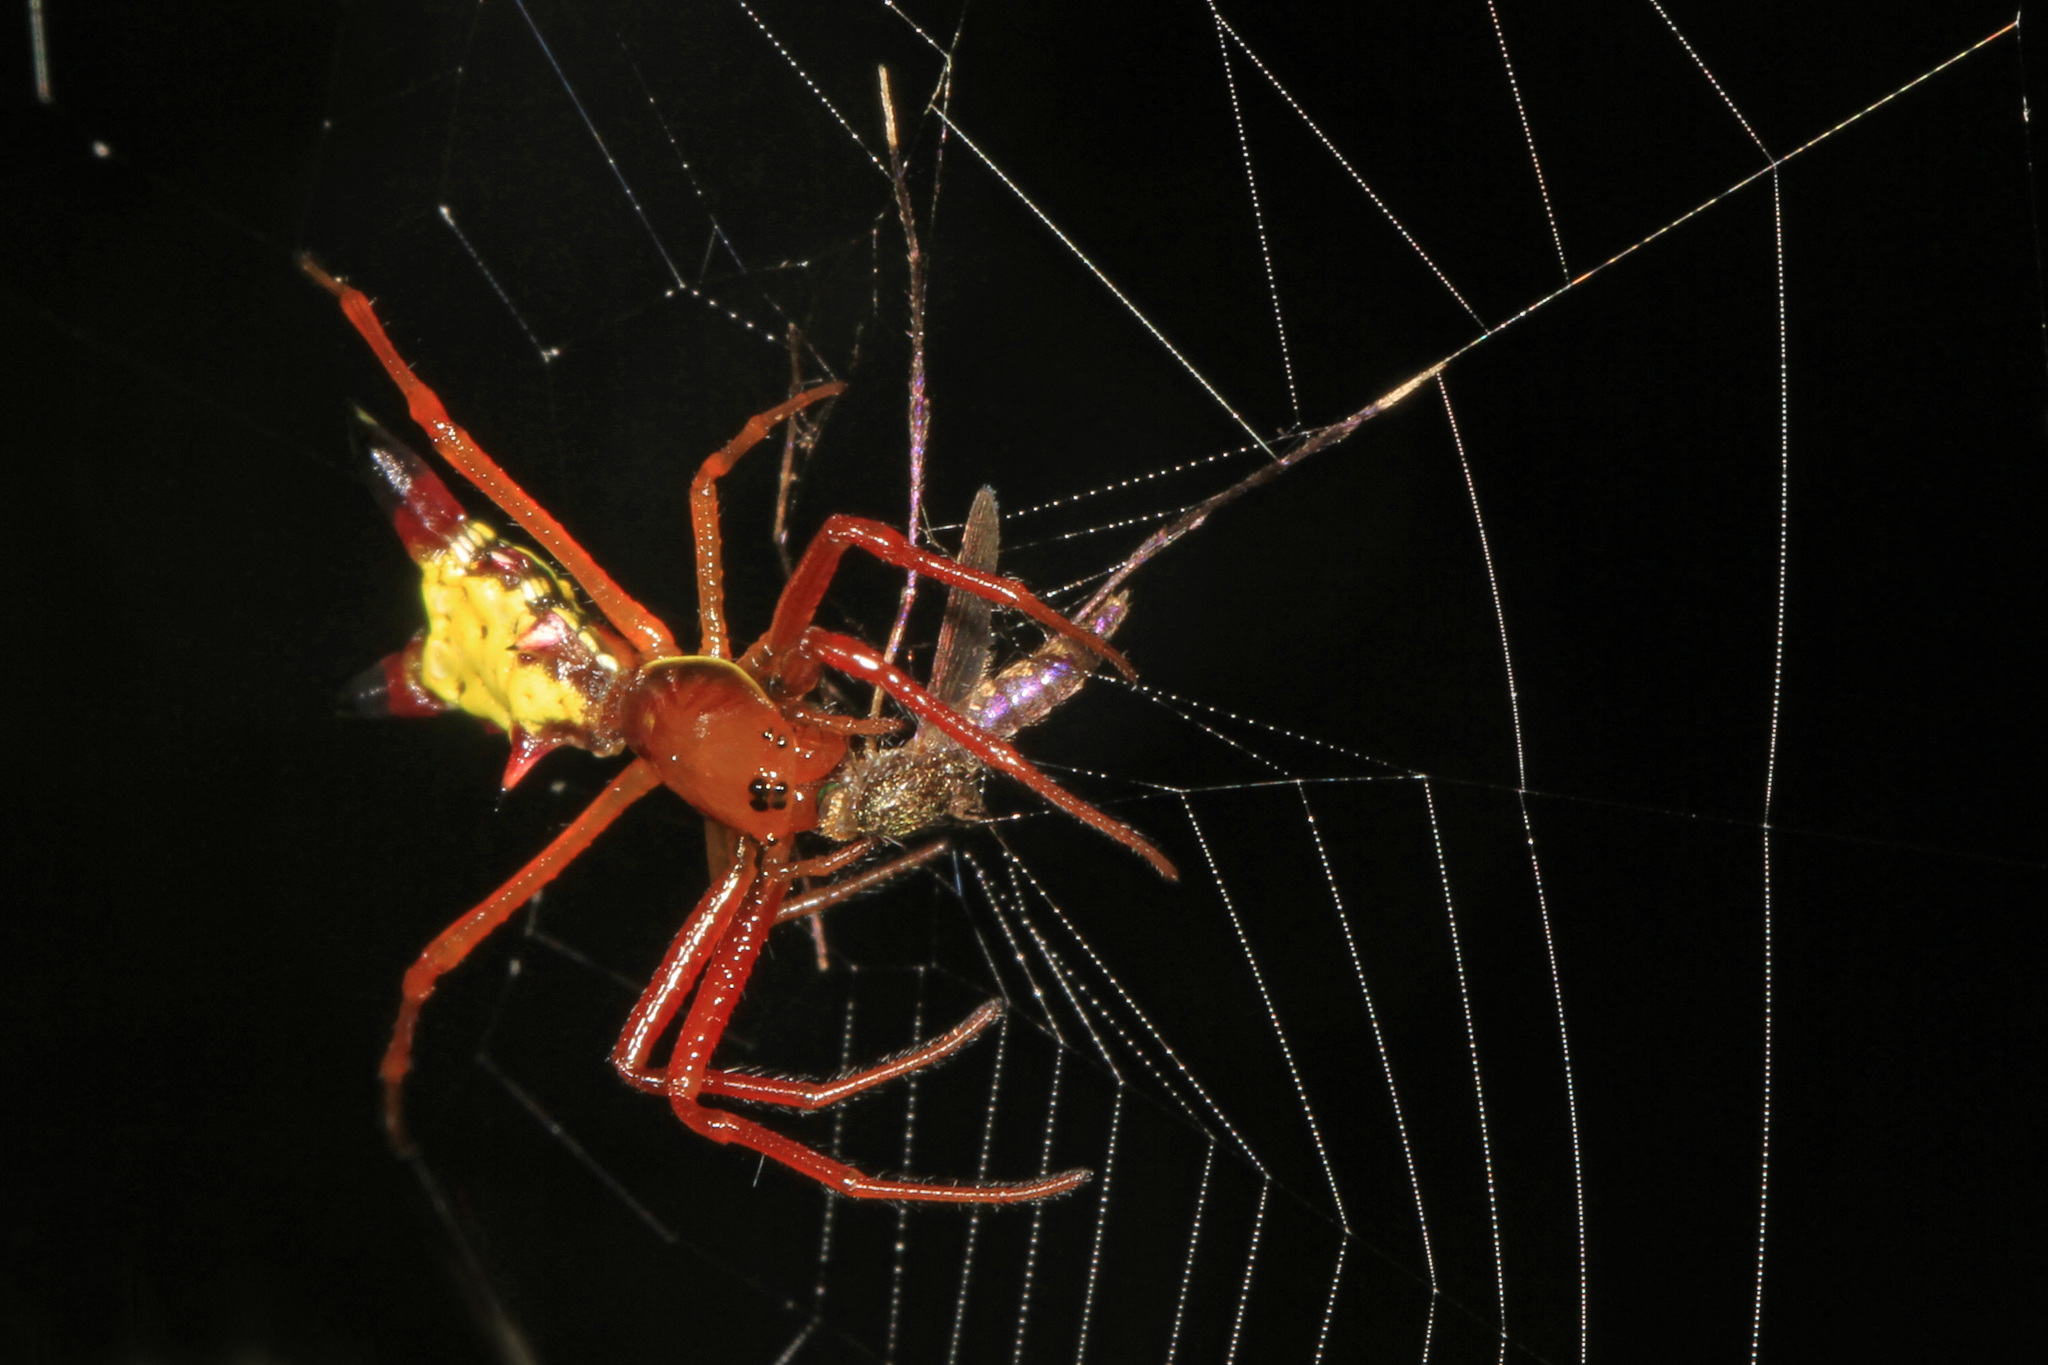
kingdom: Animalia
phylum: Arthropoda
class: Arachnida
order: Araneae
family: Araneidae
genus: Micrathena
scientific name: Micrathena sagittata
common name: Orb weavers
